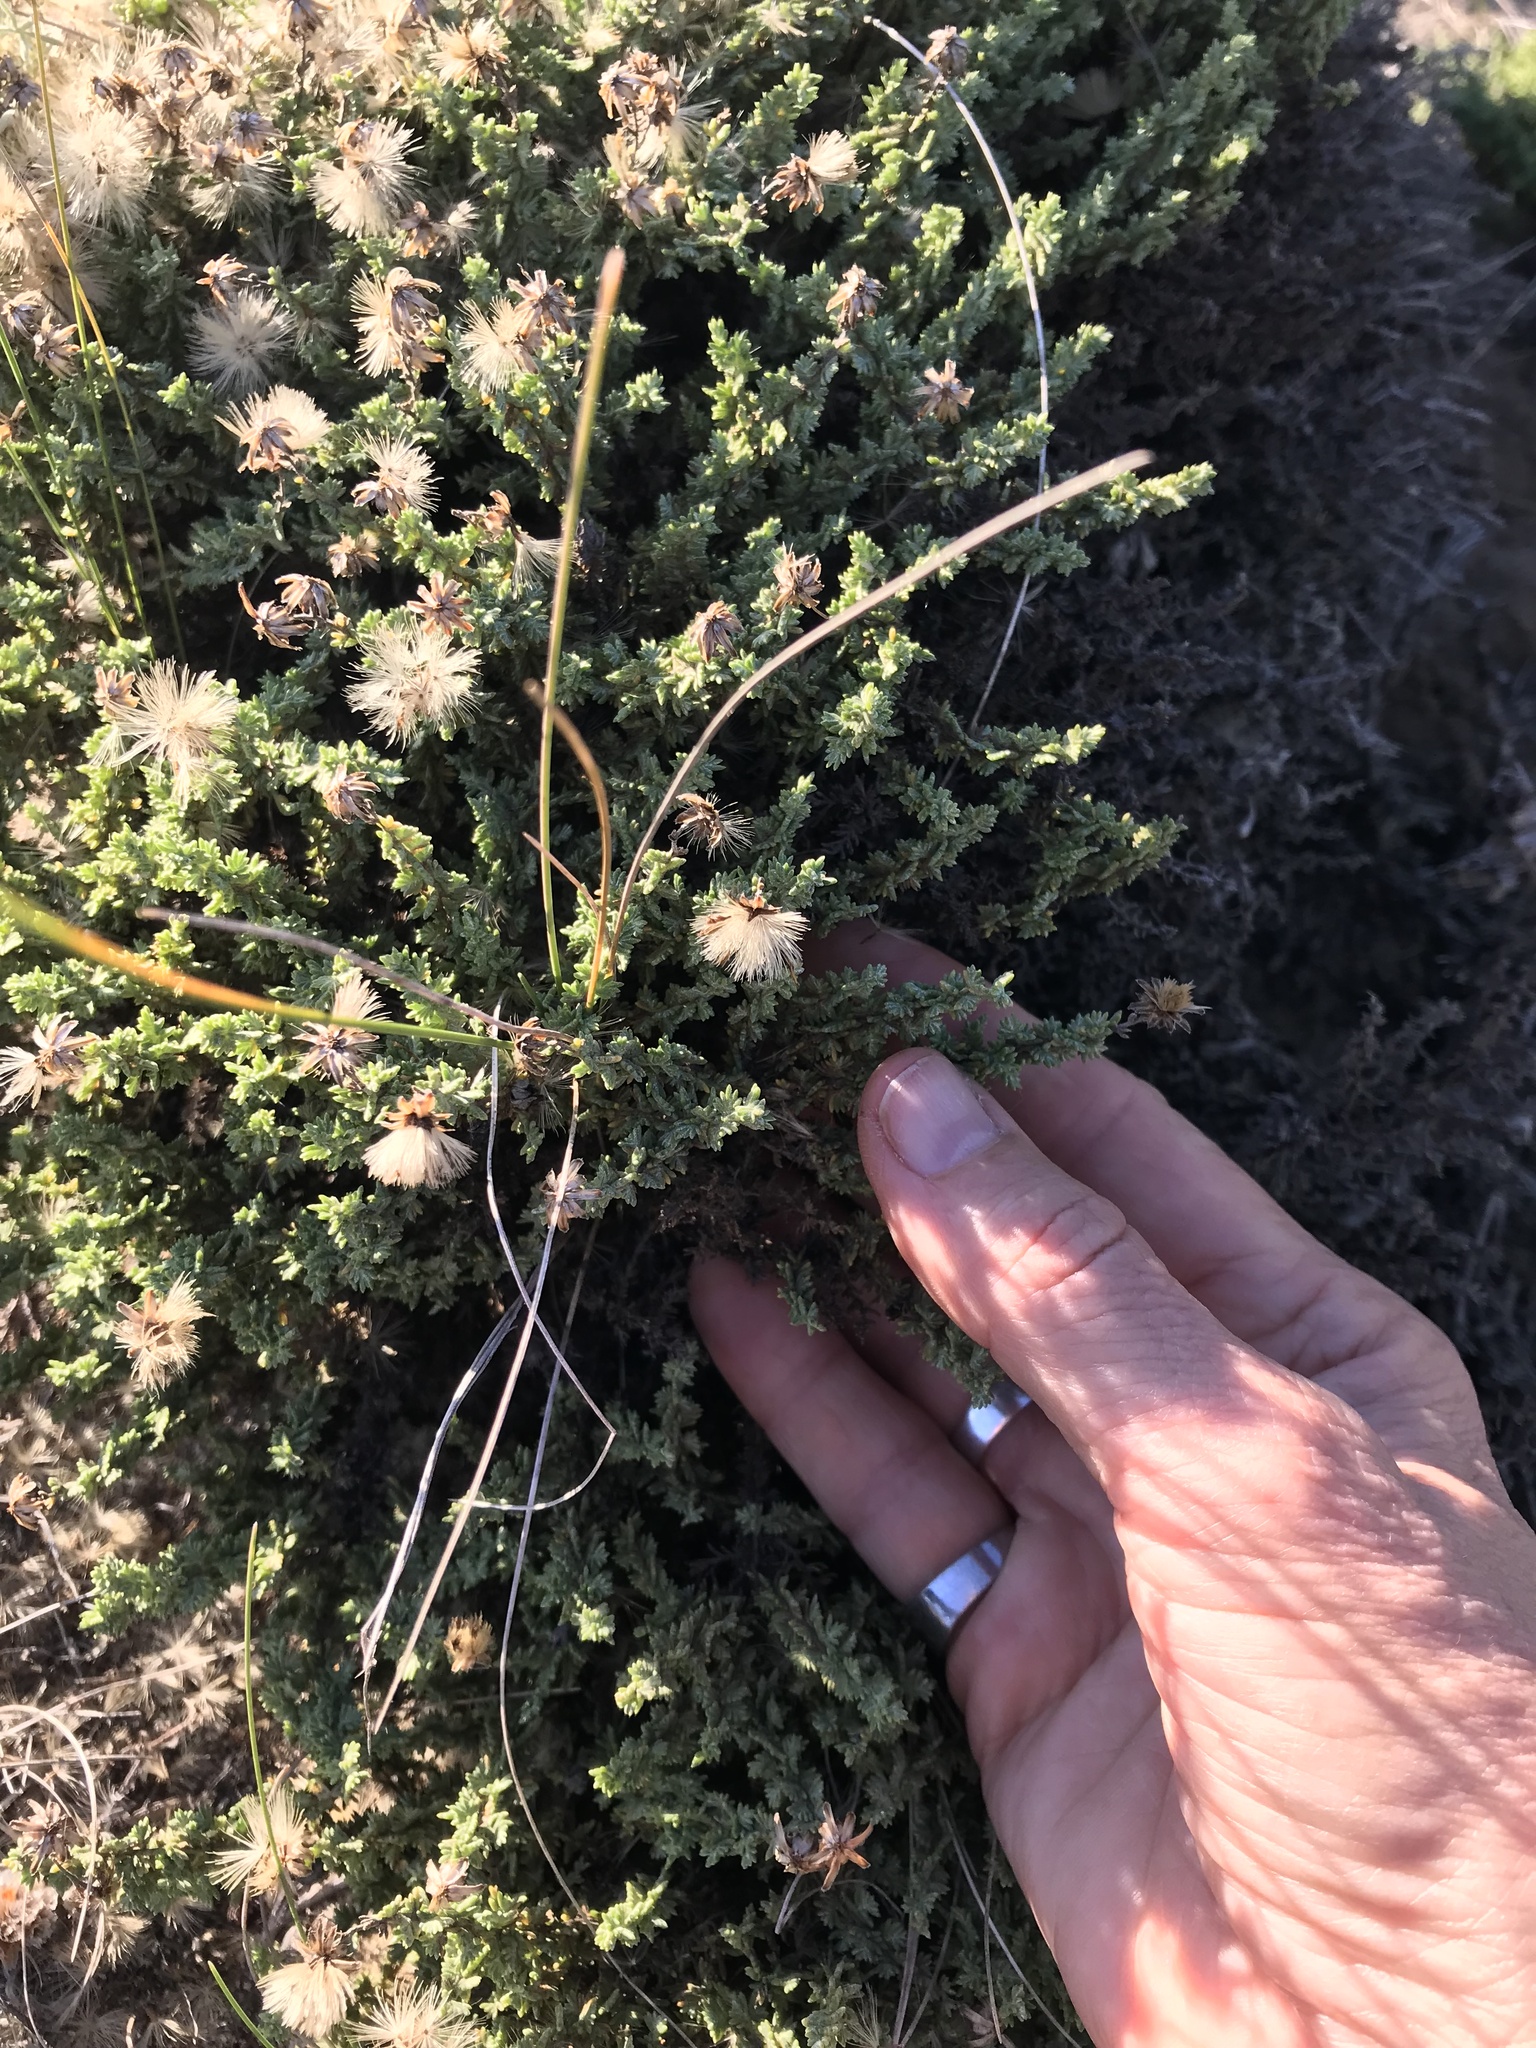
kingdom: Plantae
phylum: Tracheophyta
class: Magnoliopsida
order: Asterales
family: Asteraceae
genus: Ericameria
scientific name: Ericameria ericoides
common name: California goldenbush
